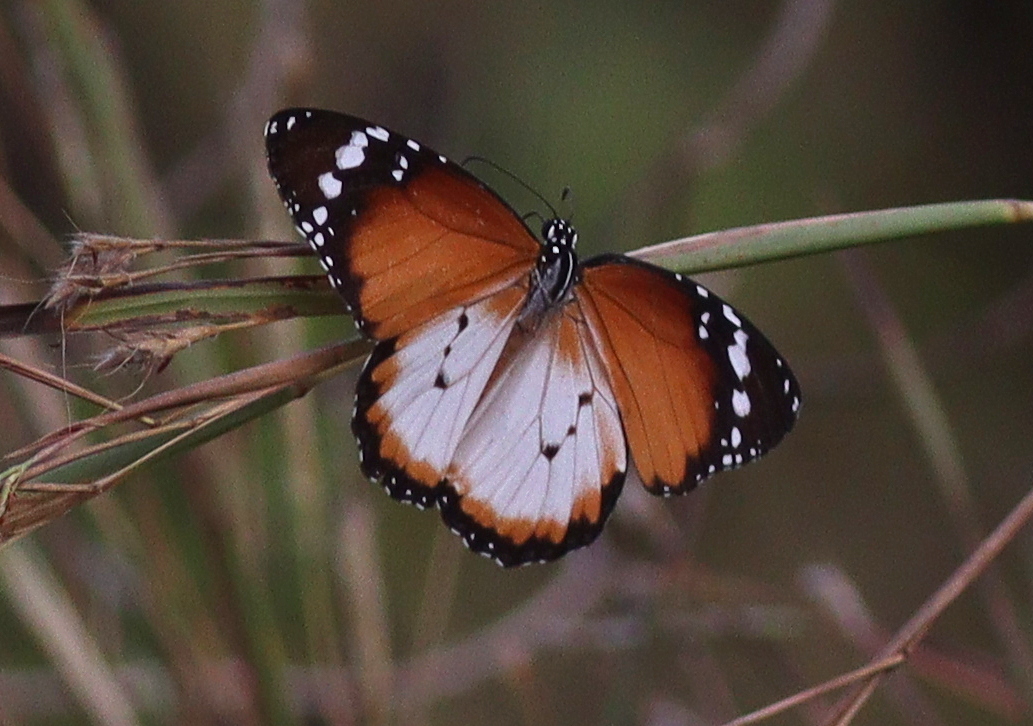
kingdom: Animalia
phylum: Arthropoda
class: Insecta
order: Lepidoptera
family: Nymphalidae
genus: Danaus
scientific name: Danaus chrysippus
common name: Plain tiger
